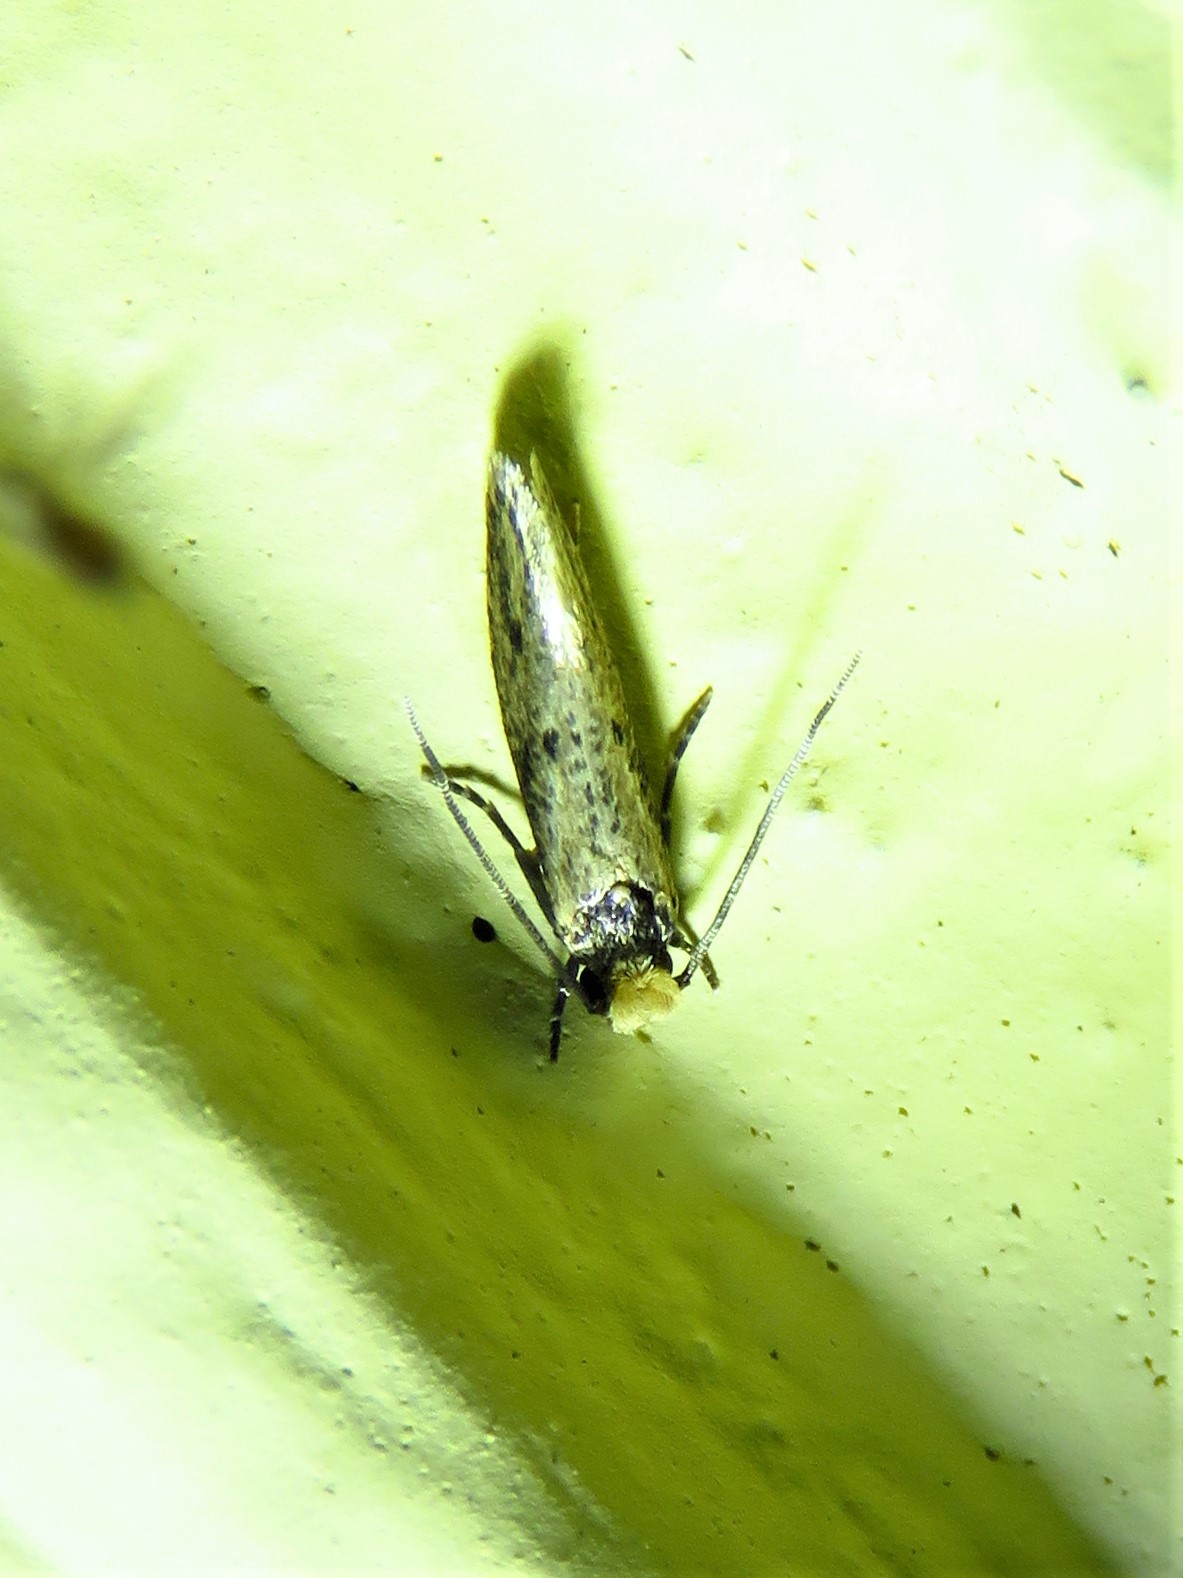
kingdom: Animalia
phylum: Arthropoda
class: Insecta
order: Lepidoptera
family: Tineidae
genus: Tinea
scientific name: Tinea apicimaculella
